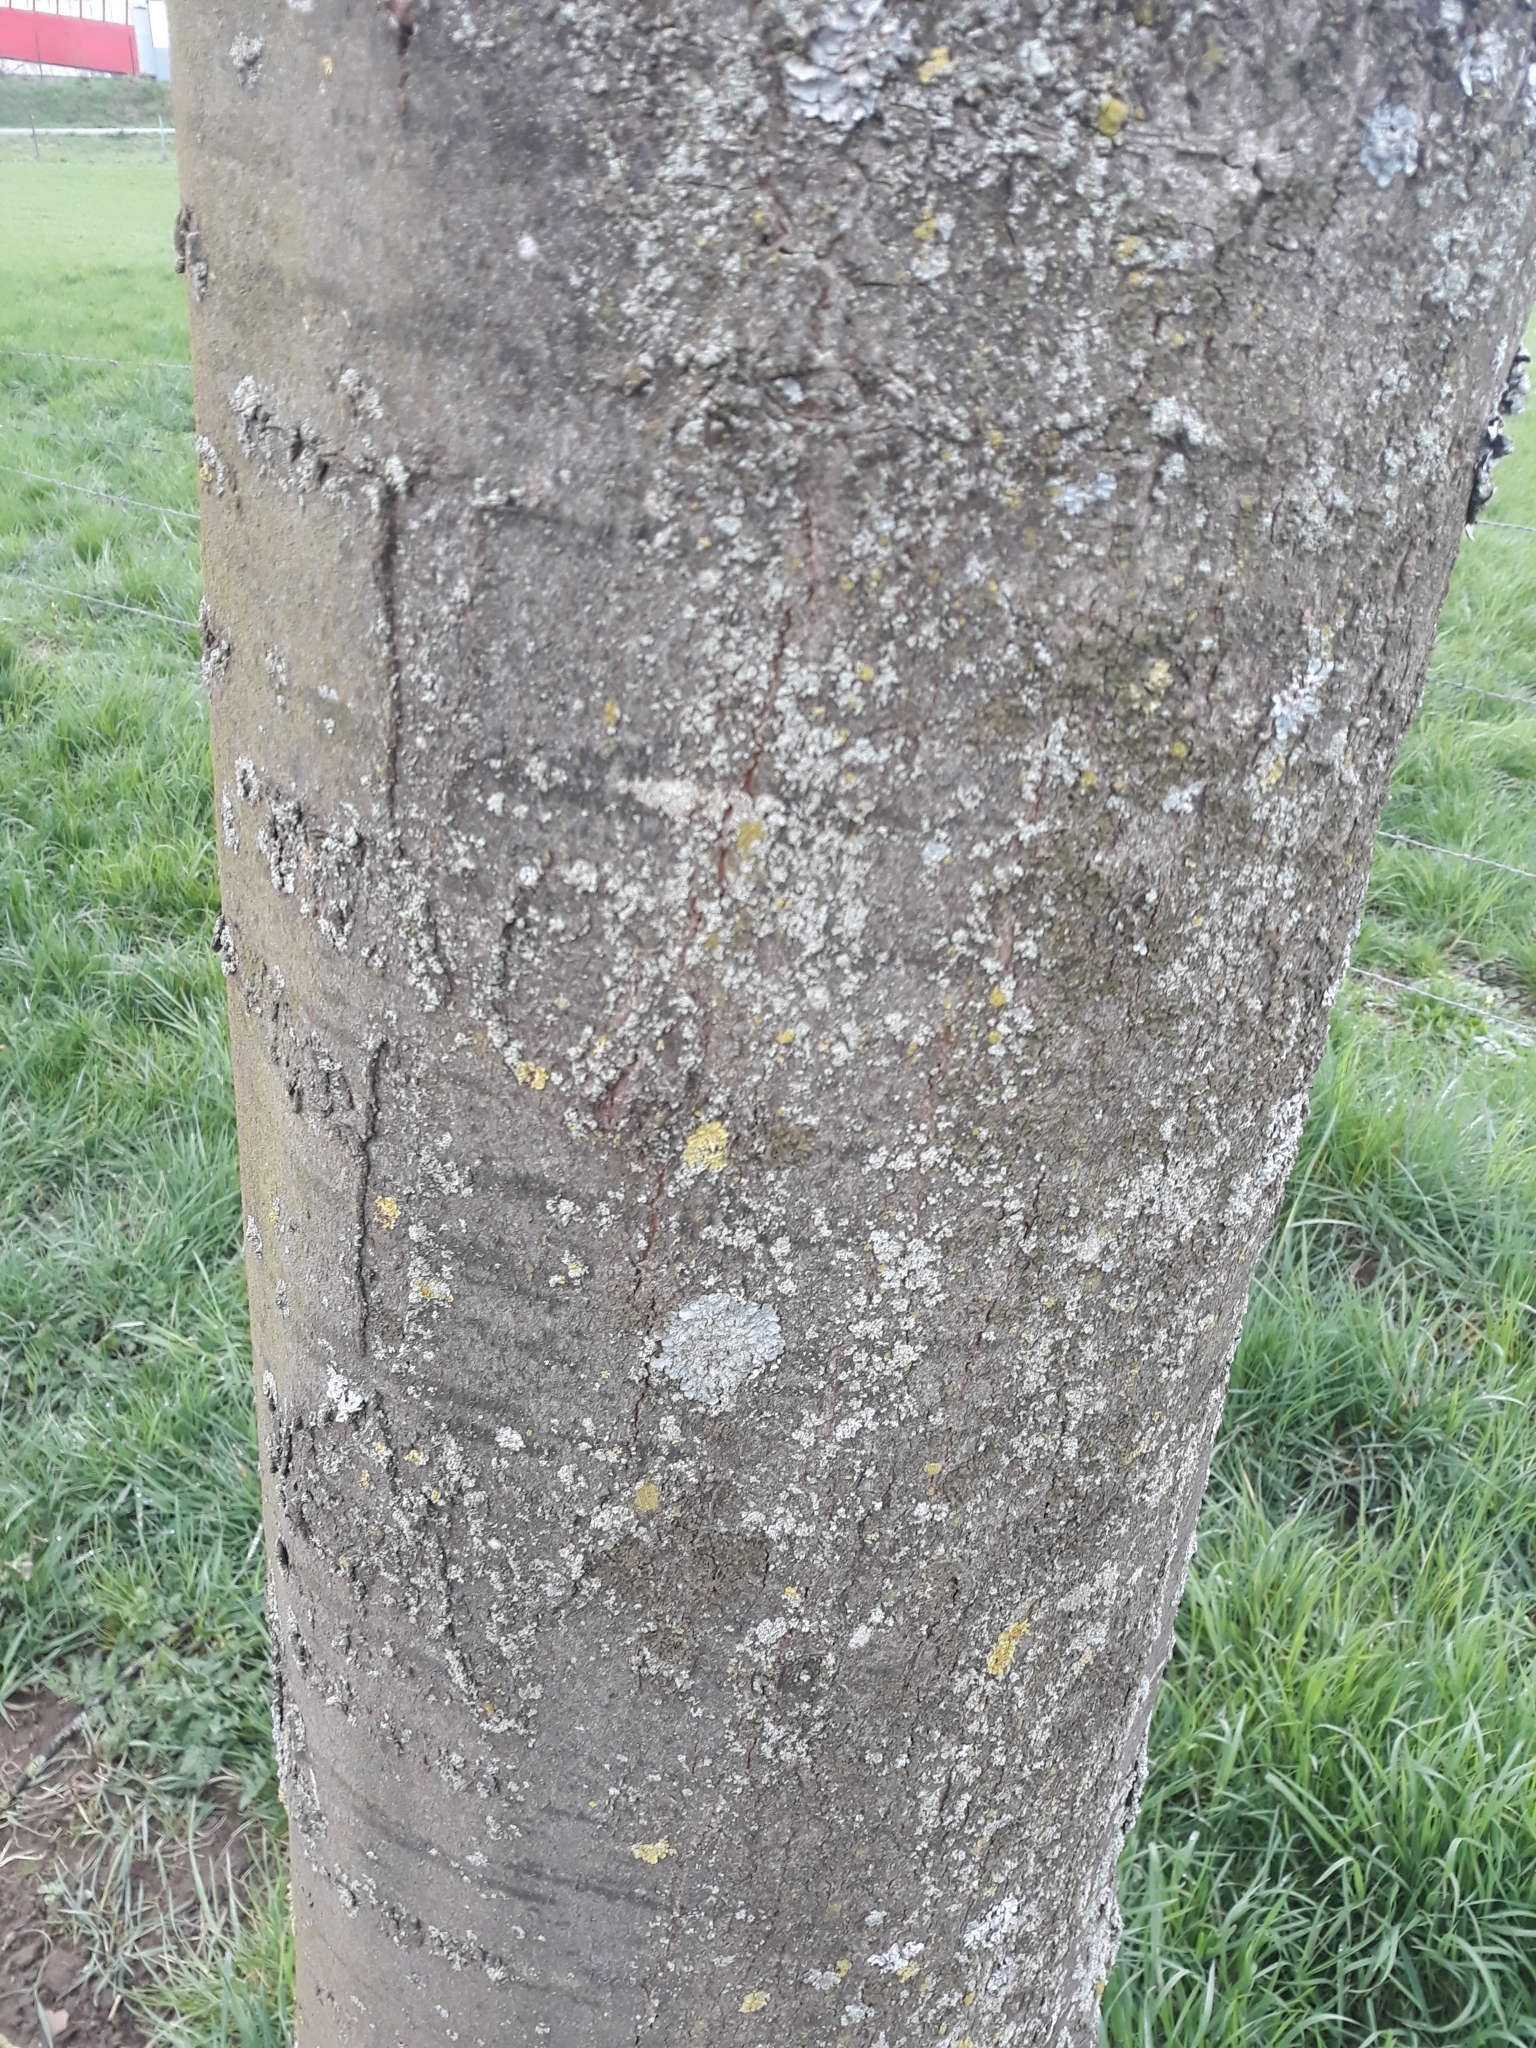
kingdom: Plantae
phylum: Tracheophyta
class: Magnoliopsida
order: Fagales
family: Juglandaceae
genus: Juglans
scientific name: Juglans regia
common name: Walnut
